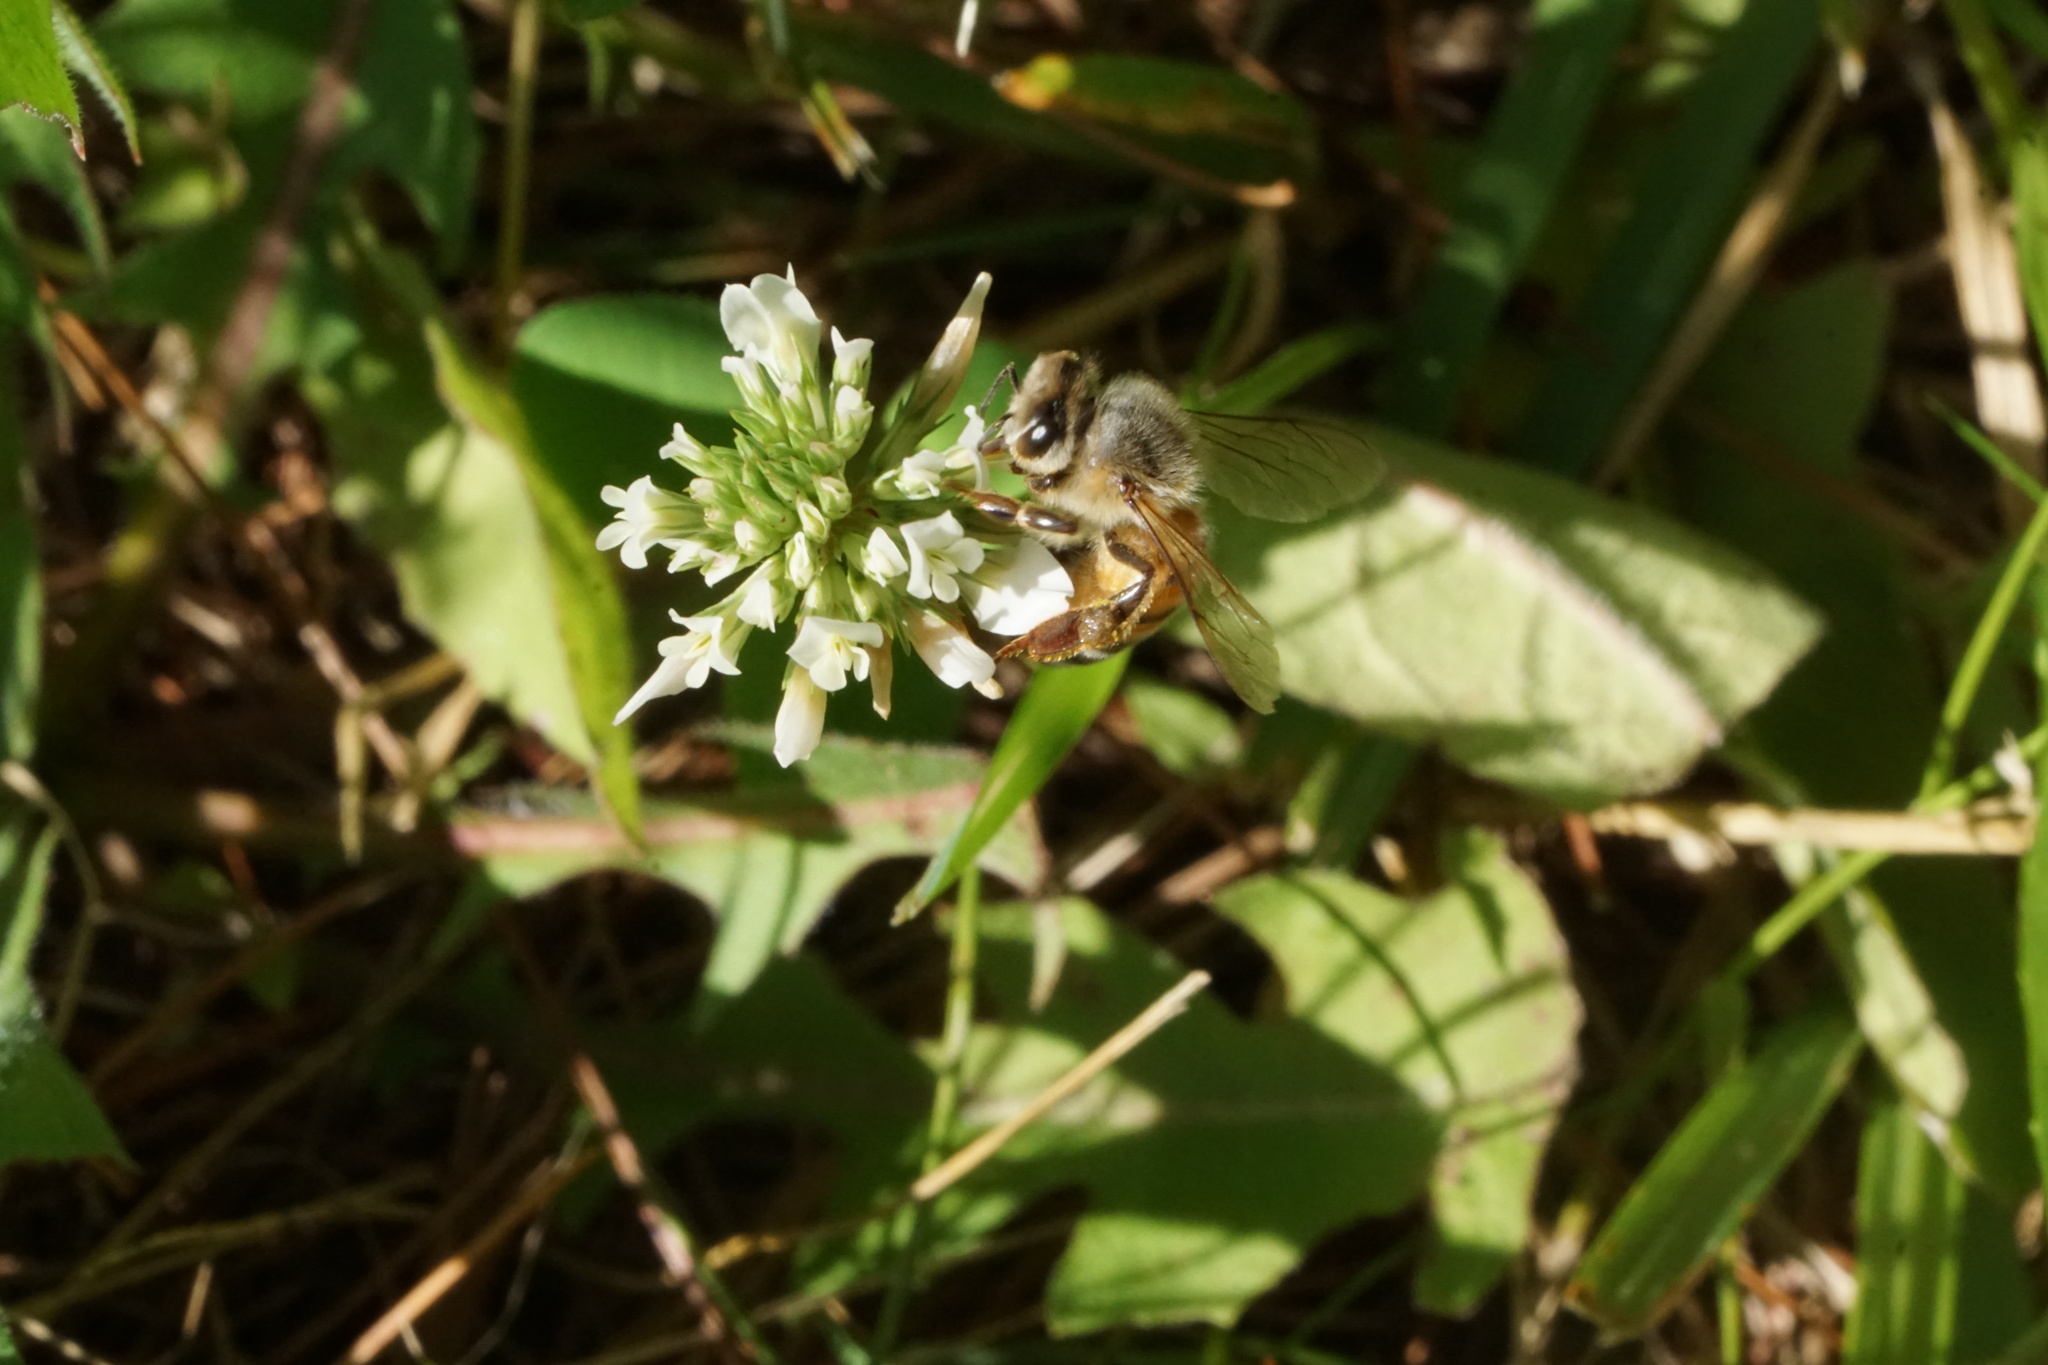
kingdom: Animalia
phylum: Arthropoda
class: Insecta
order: Hymenoptera
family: Apidae
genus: Apis
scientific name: Apis mellifera
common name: Honey bee
